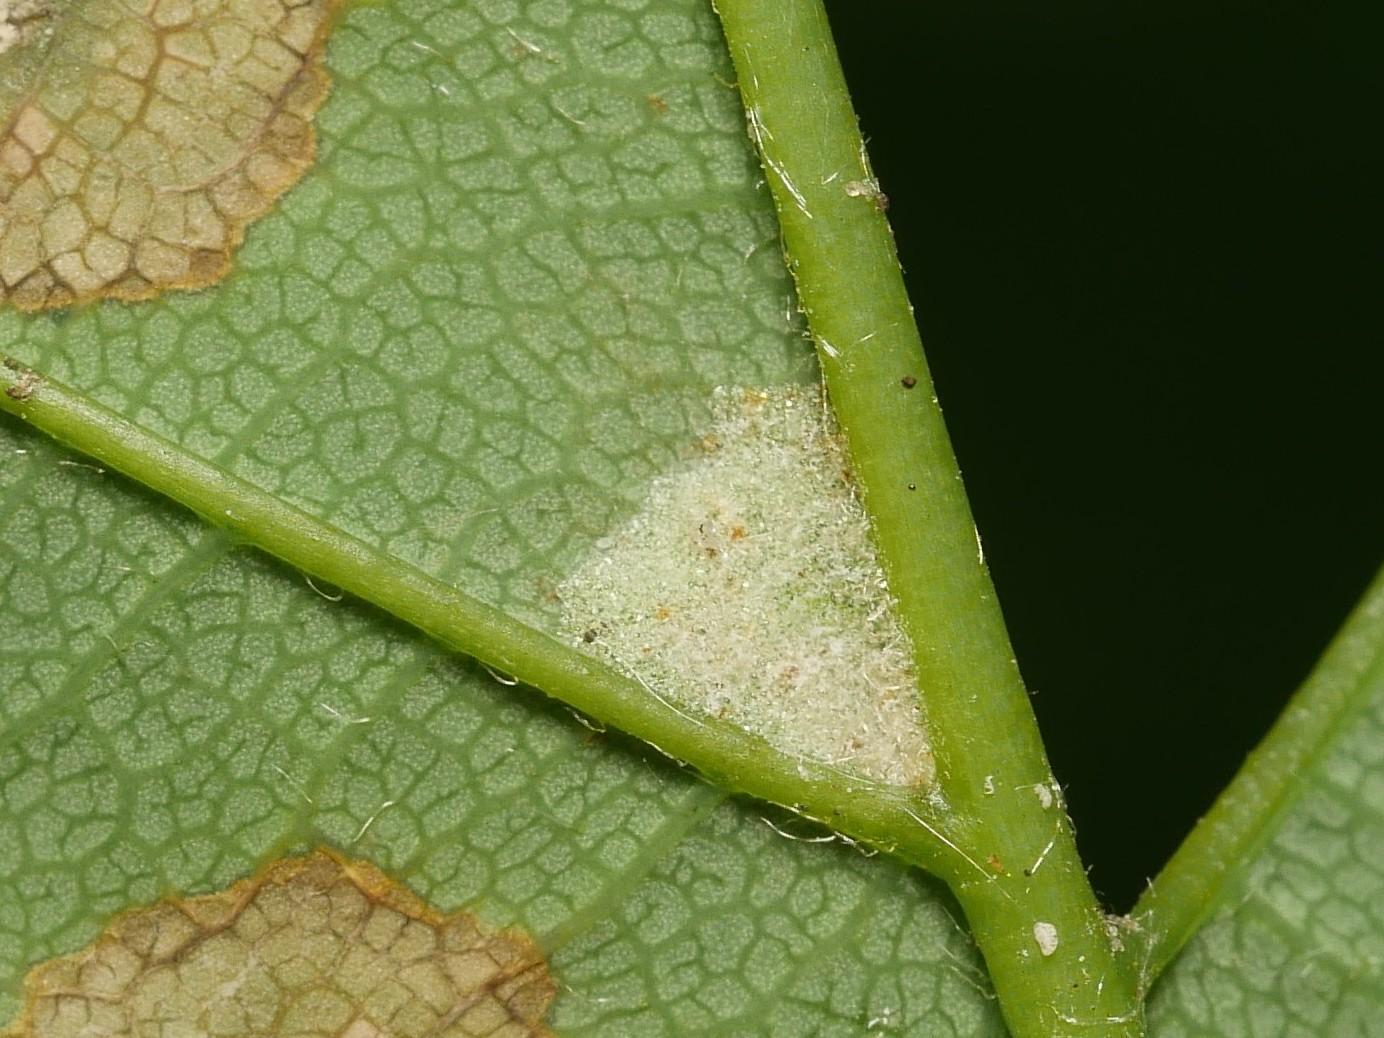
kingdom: Animalia
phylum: Arthropoda
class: Arachnida
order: Trombidiformes
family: Eriophyidae
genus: Aceria
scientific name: Aceria pseudoplatani
